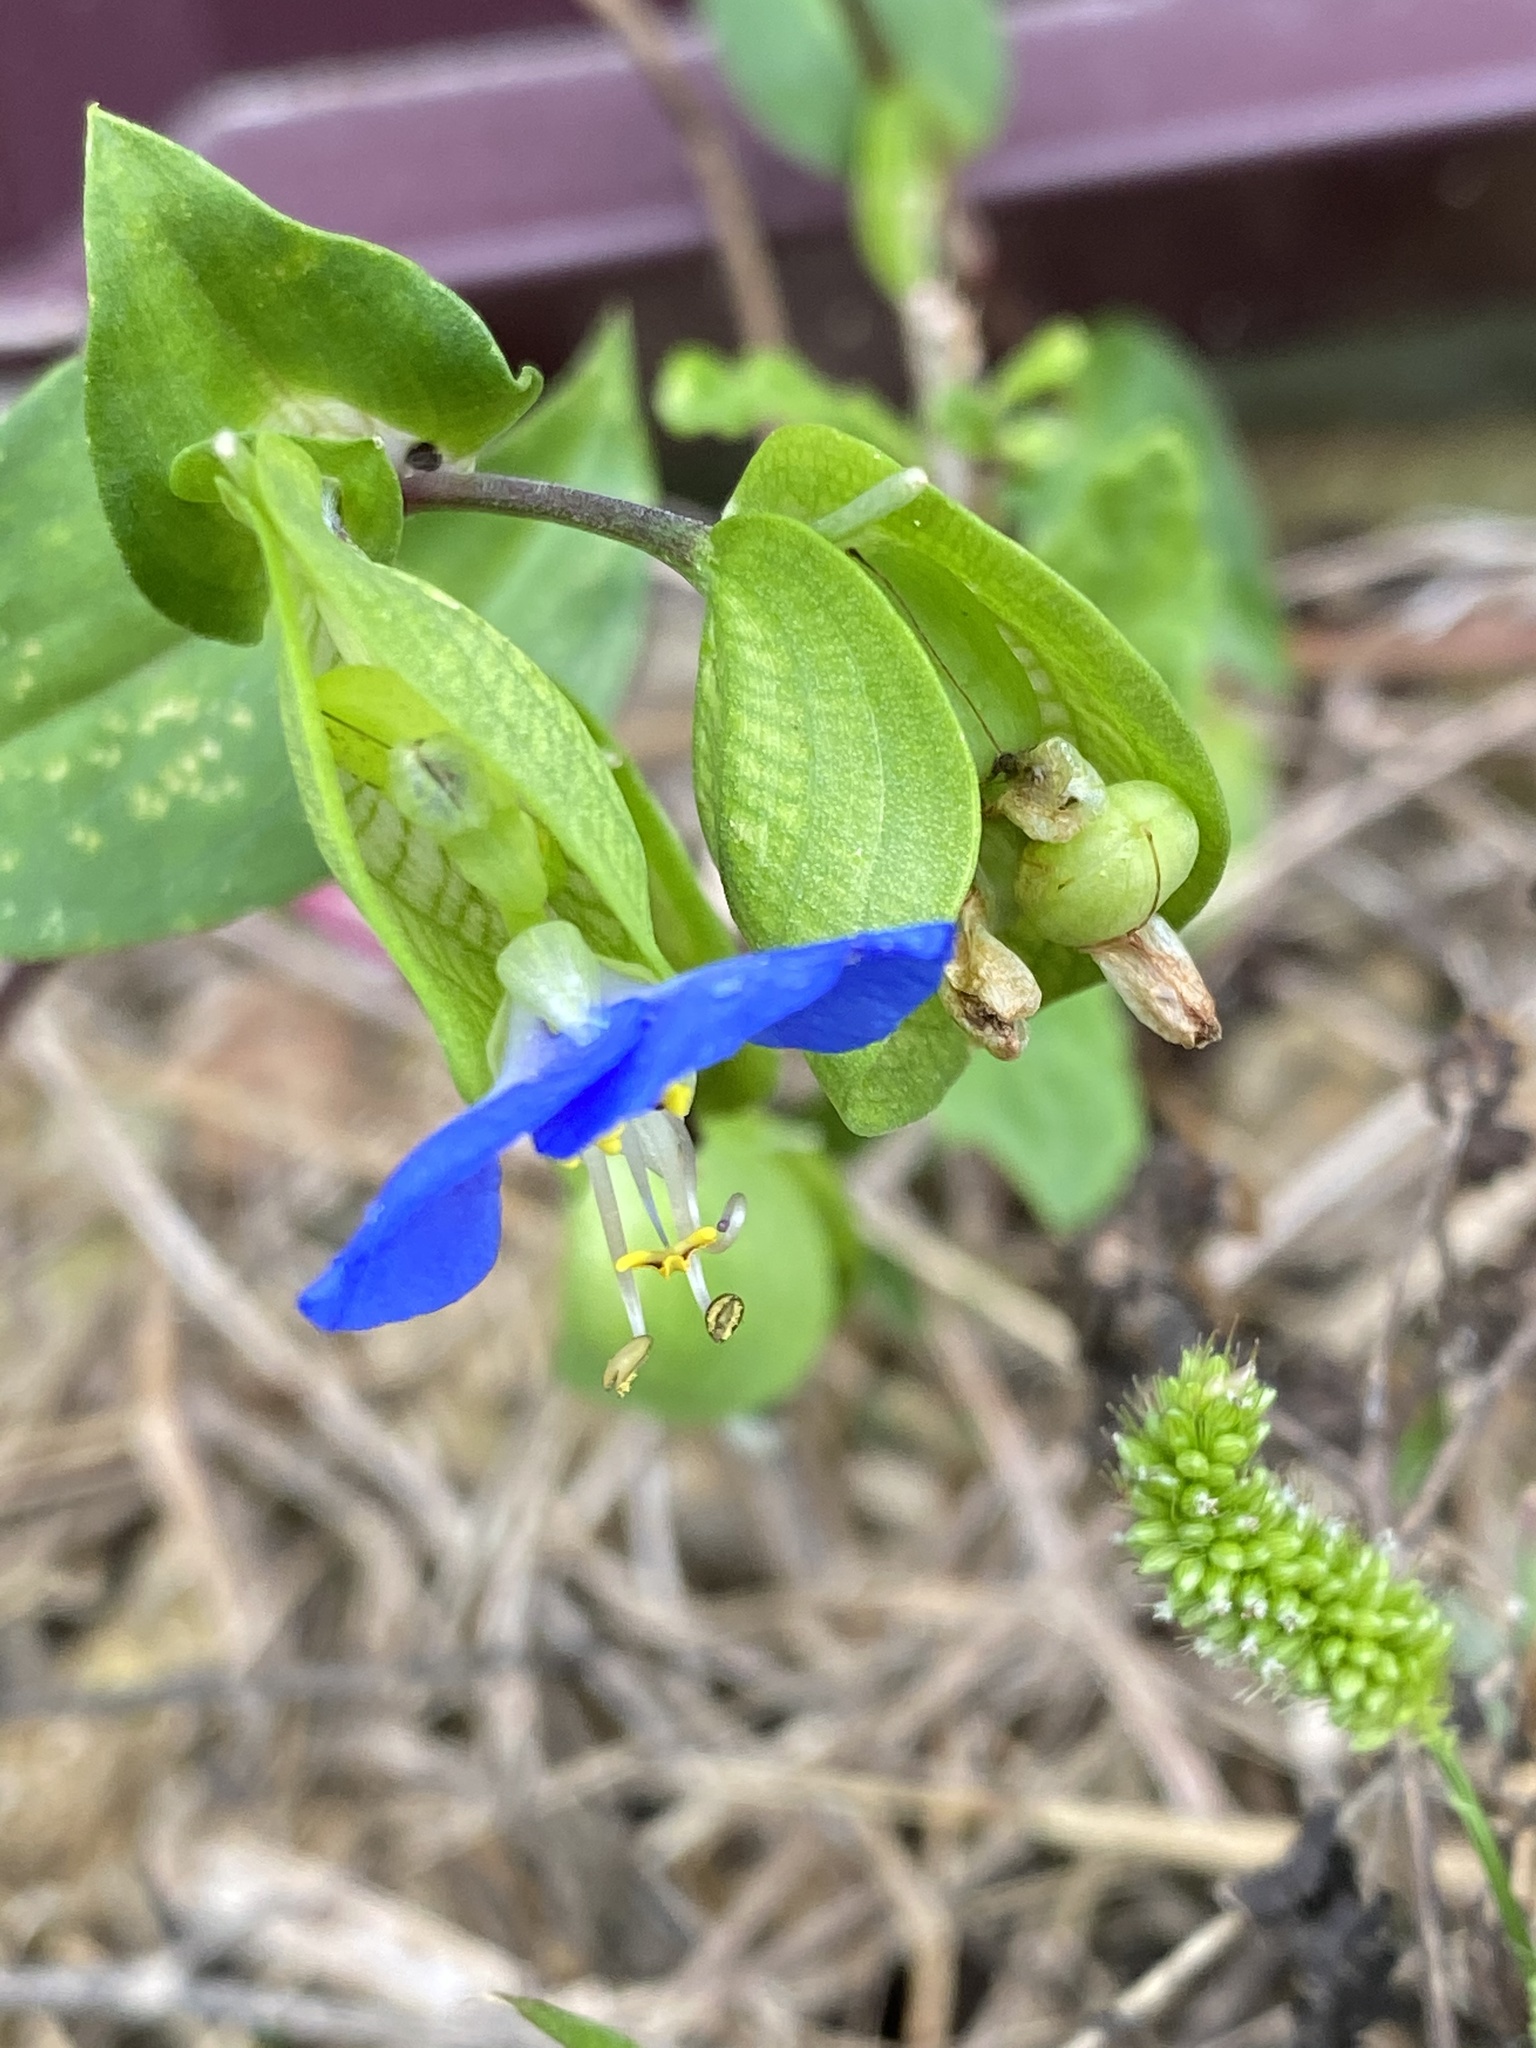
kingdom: Plantae
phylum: Tracheophyta
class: Liliopsida
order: Commelinales
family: Commelinaceae
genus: Commelina
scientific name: Commelina communis
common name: Asiatic dayflower
